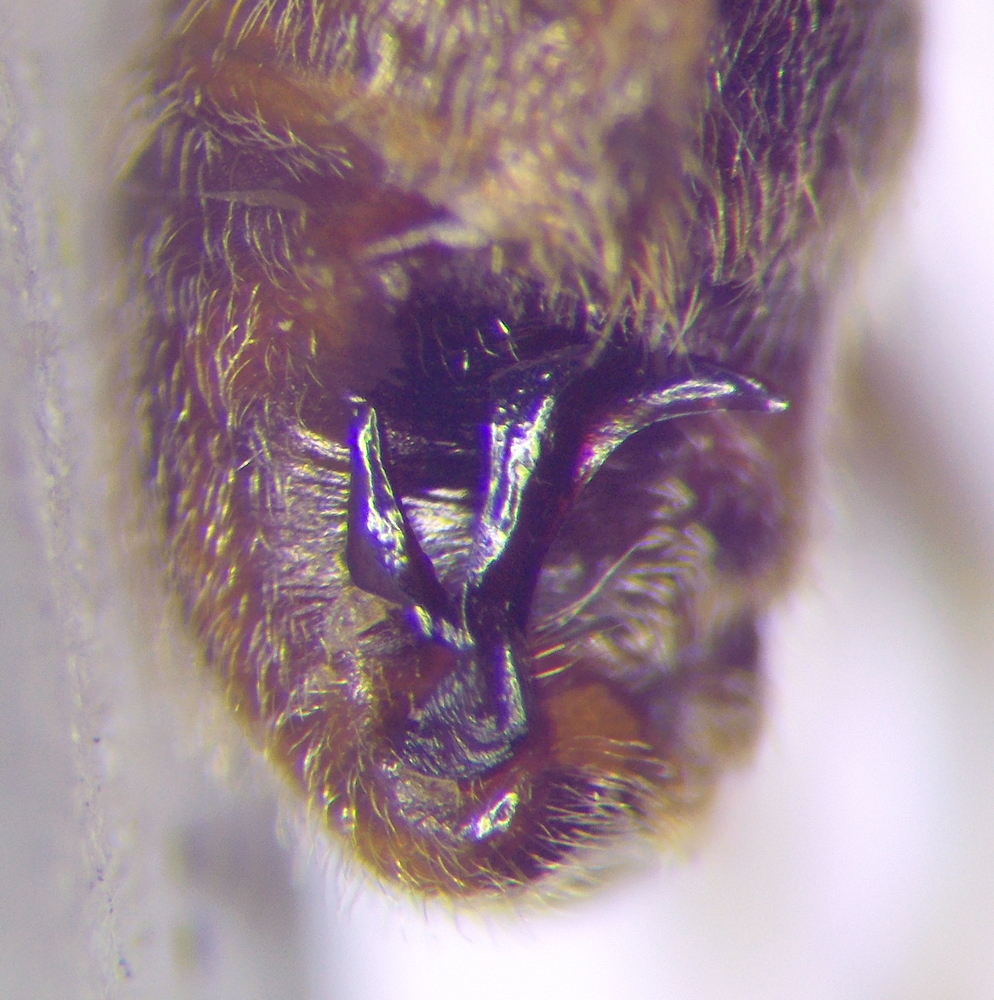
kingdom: Animalia
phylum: Arthropoda
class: Insecta
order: Hemiptera
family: Nabidae
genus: Himacerus
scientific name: Himacerus apterus
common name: Tree damsel bug
